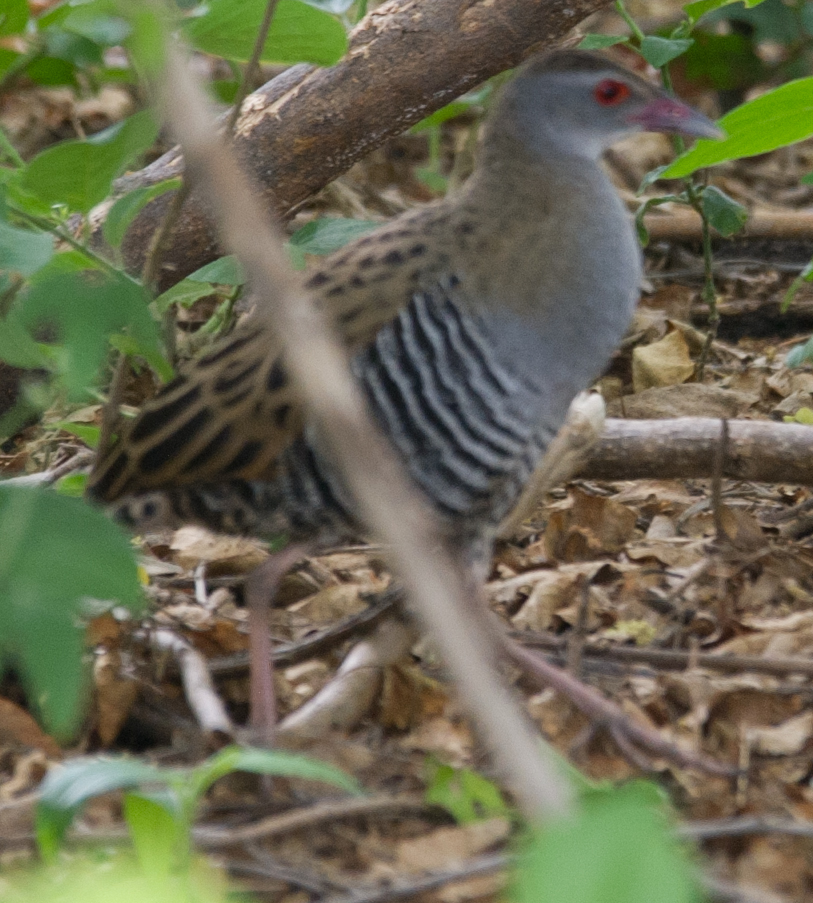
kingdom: Animalia
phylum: Chordata
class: Aves
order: Gruiformes
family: Rallidae
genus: Crex
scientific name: Crex egregia
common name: African crake
